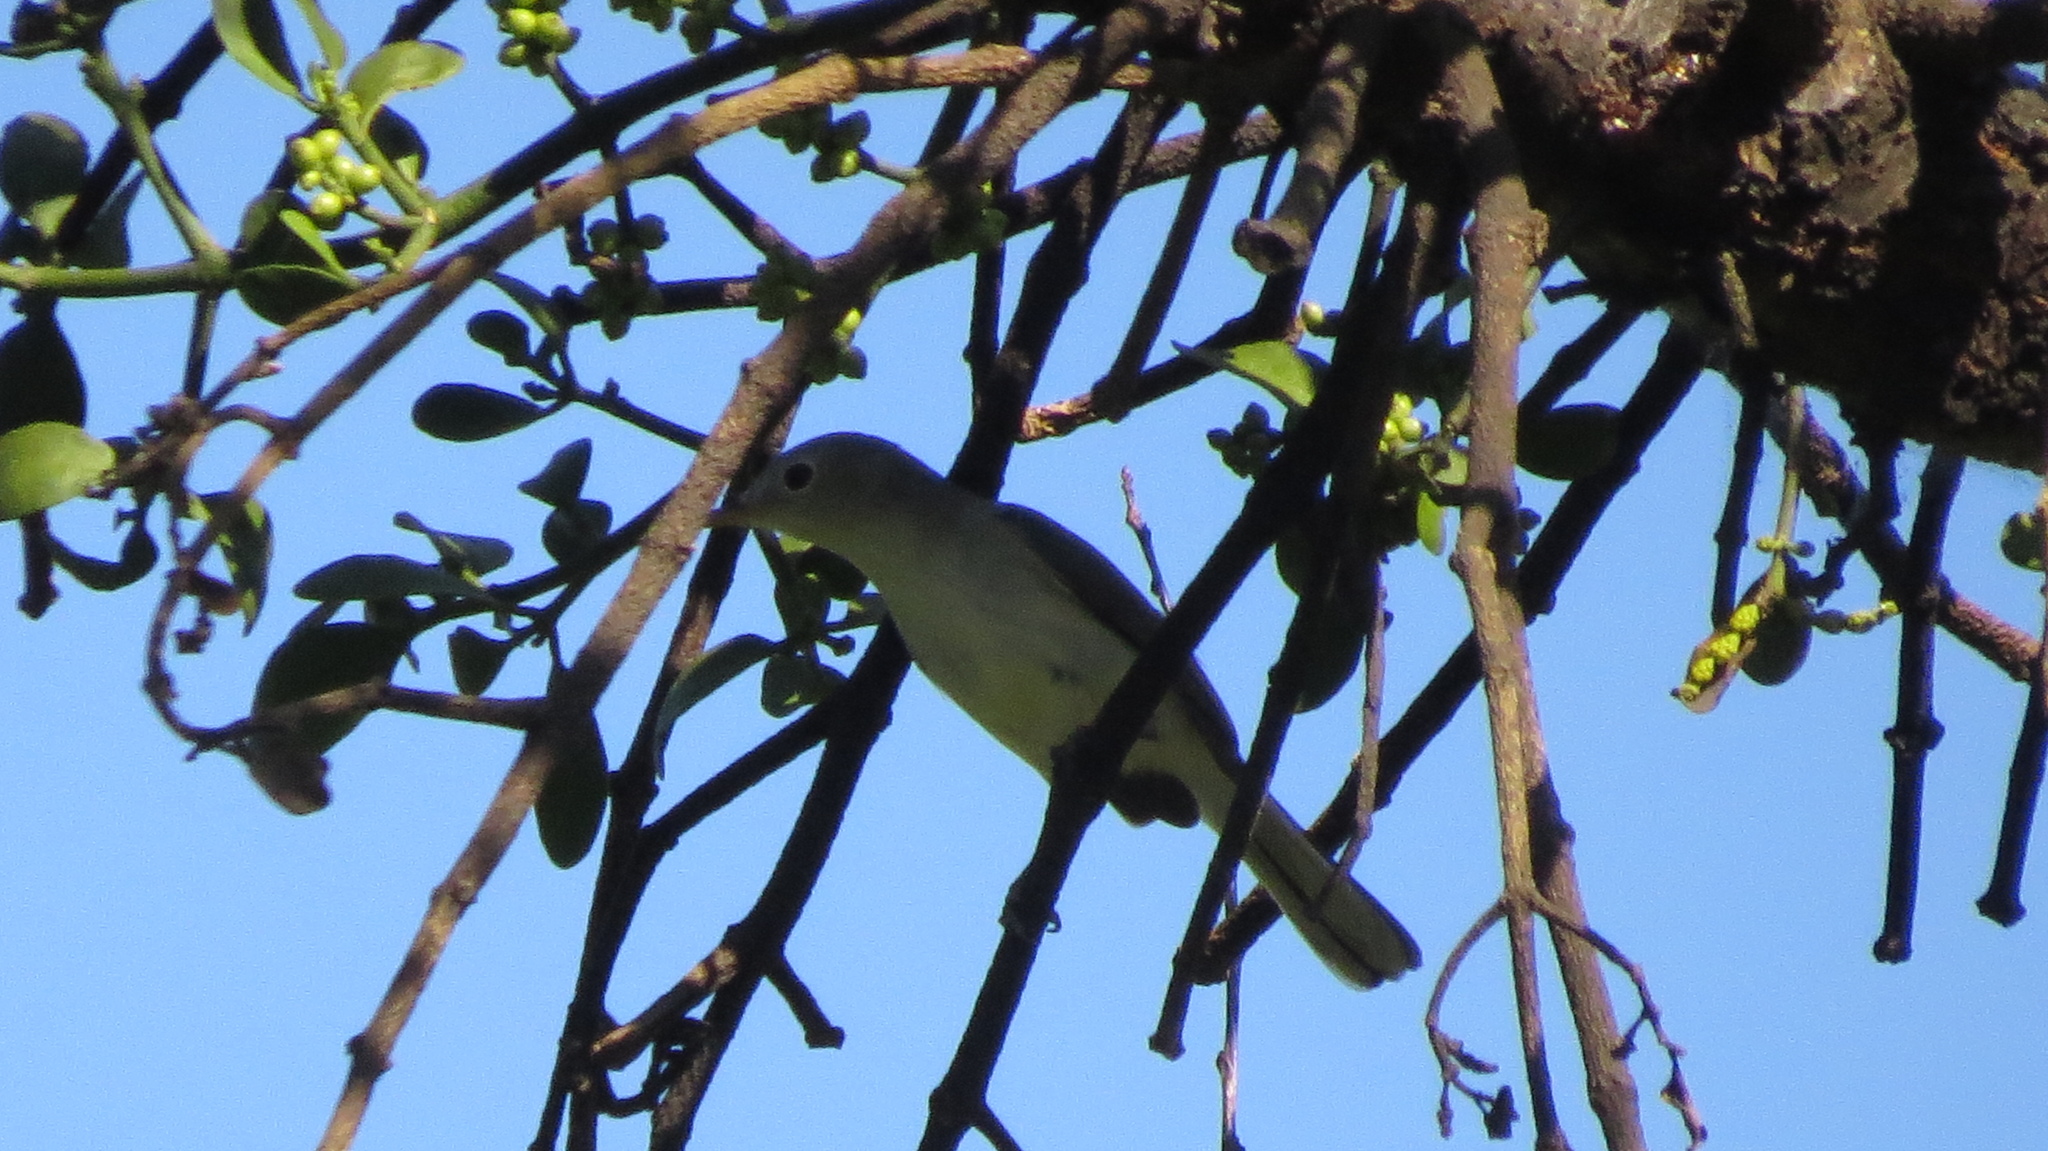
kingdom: Animalia
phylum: Chordata
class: Aves
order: Passeriformes
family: Polioptilidae
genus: Polioptila
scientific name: Polioptila caerulea
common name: Blue-gray gnatcatcher
